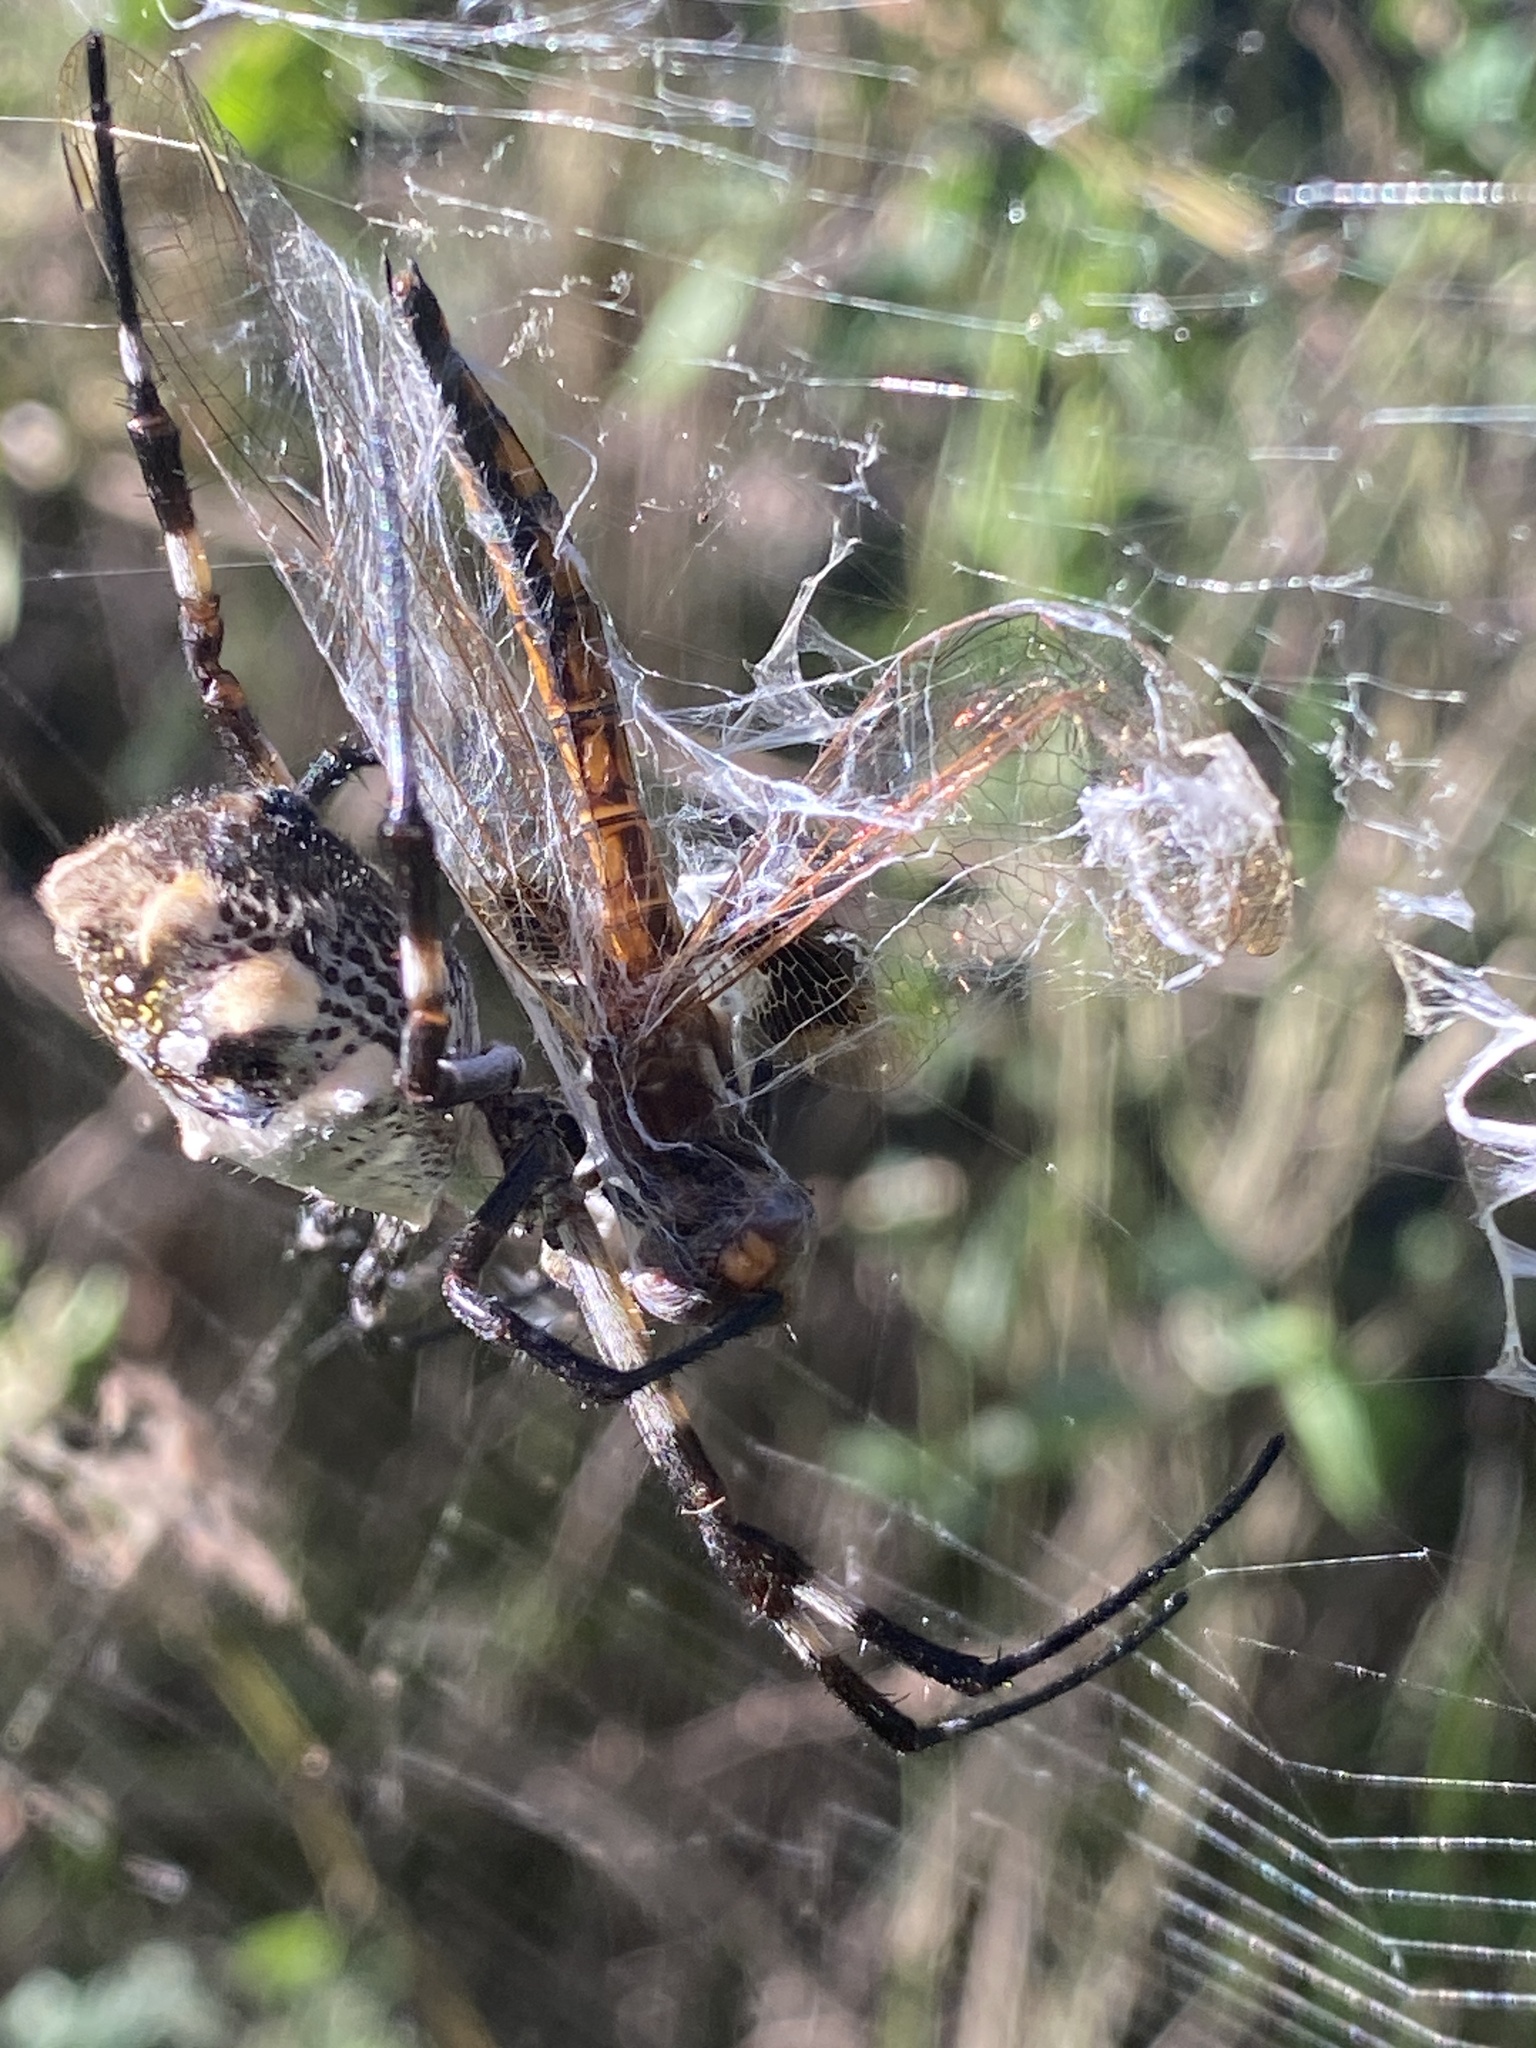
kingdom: Animalia
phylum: Arthropoda
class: Arachnida
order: Araneae
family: Araneidae
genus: Argiope
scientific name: Argiope argentata
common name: Orb weavers
